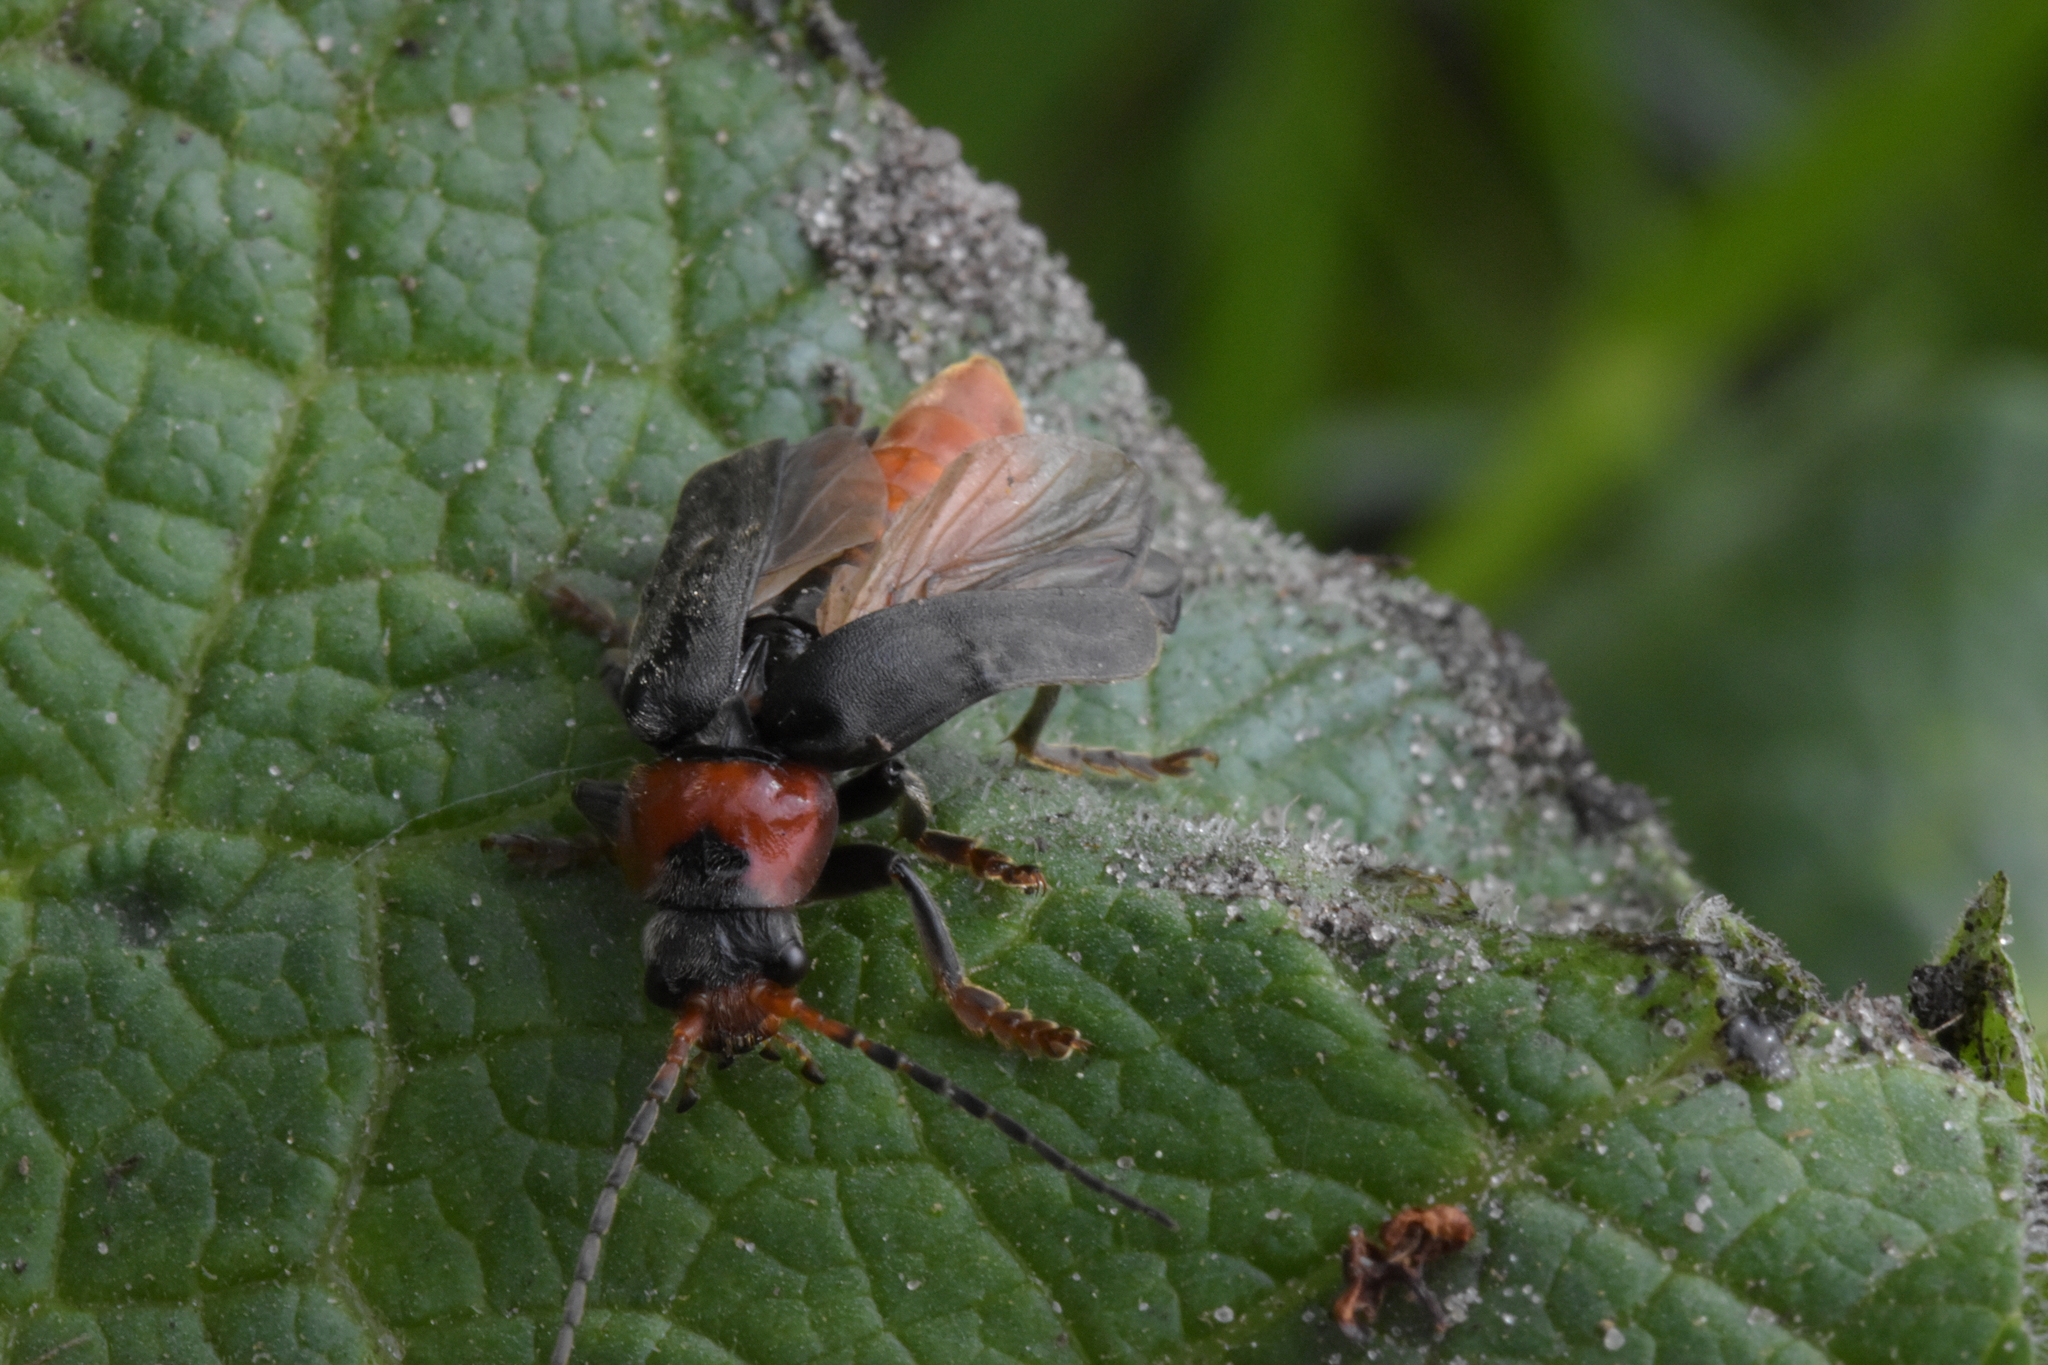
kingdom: Animalia
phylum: Arthropoda
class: Insecta
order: Coleoptera
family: Cantharidae
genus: Cantharis
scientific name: Cantharis fusca
